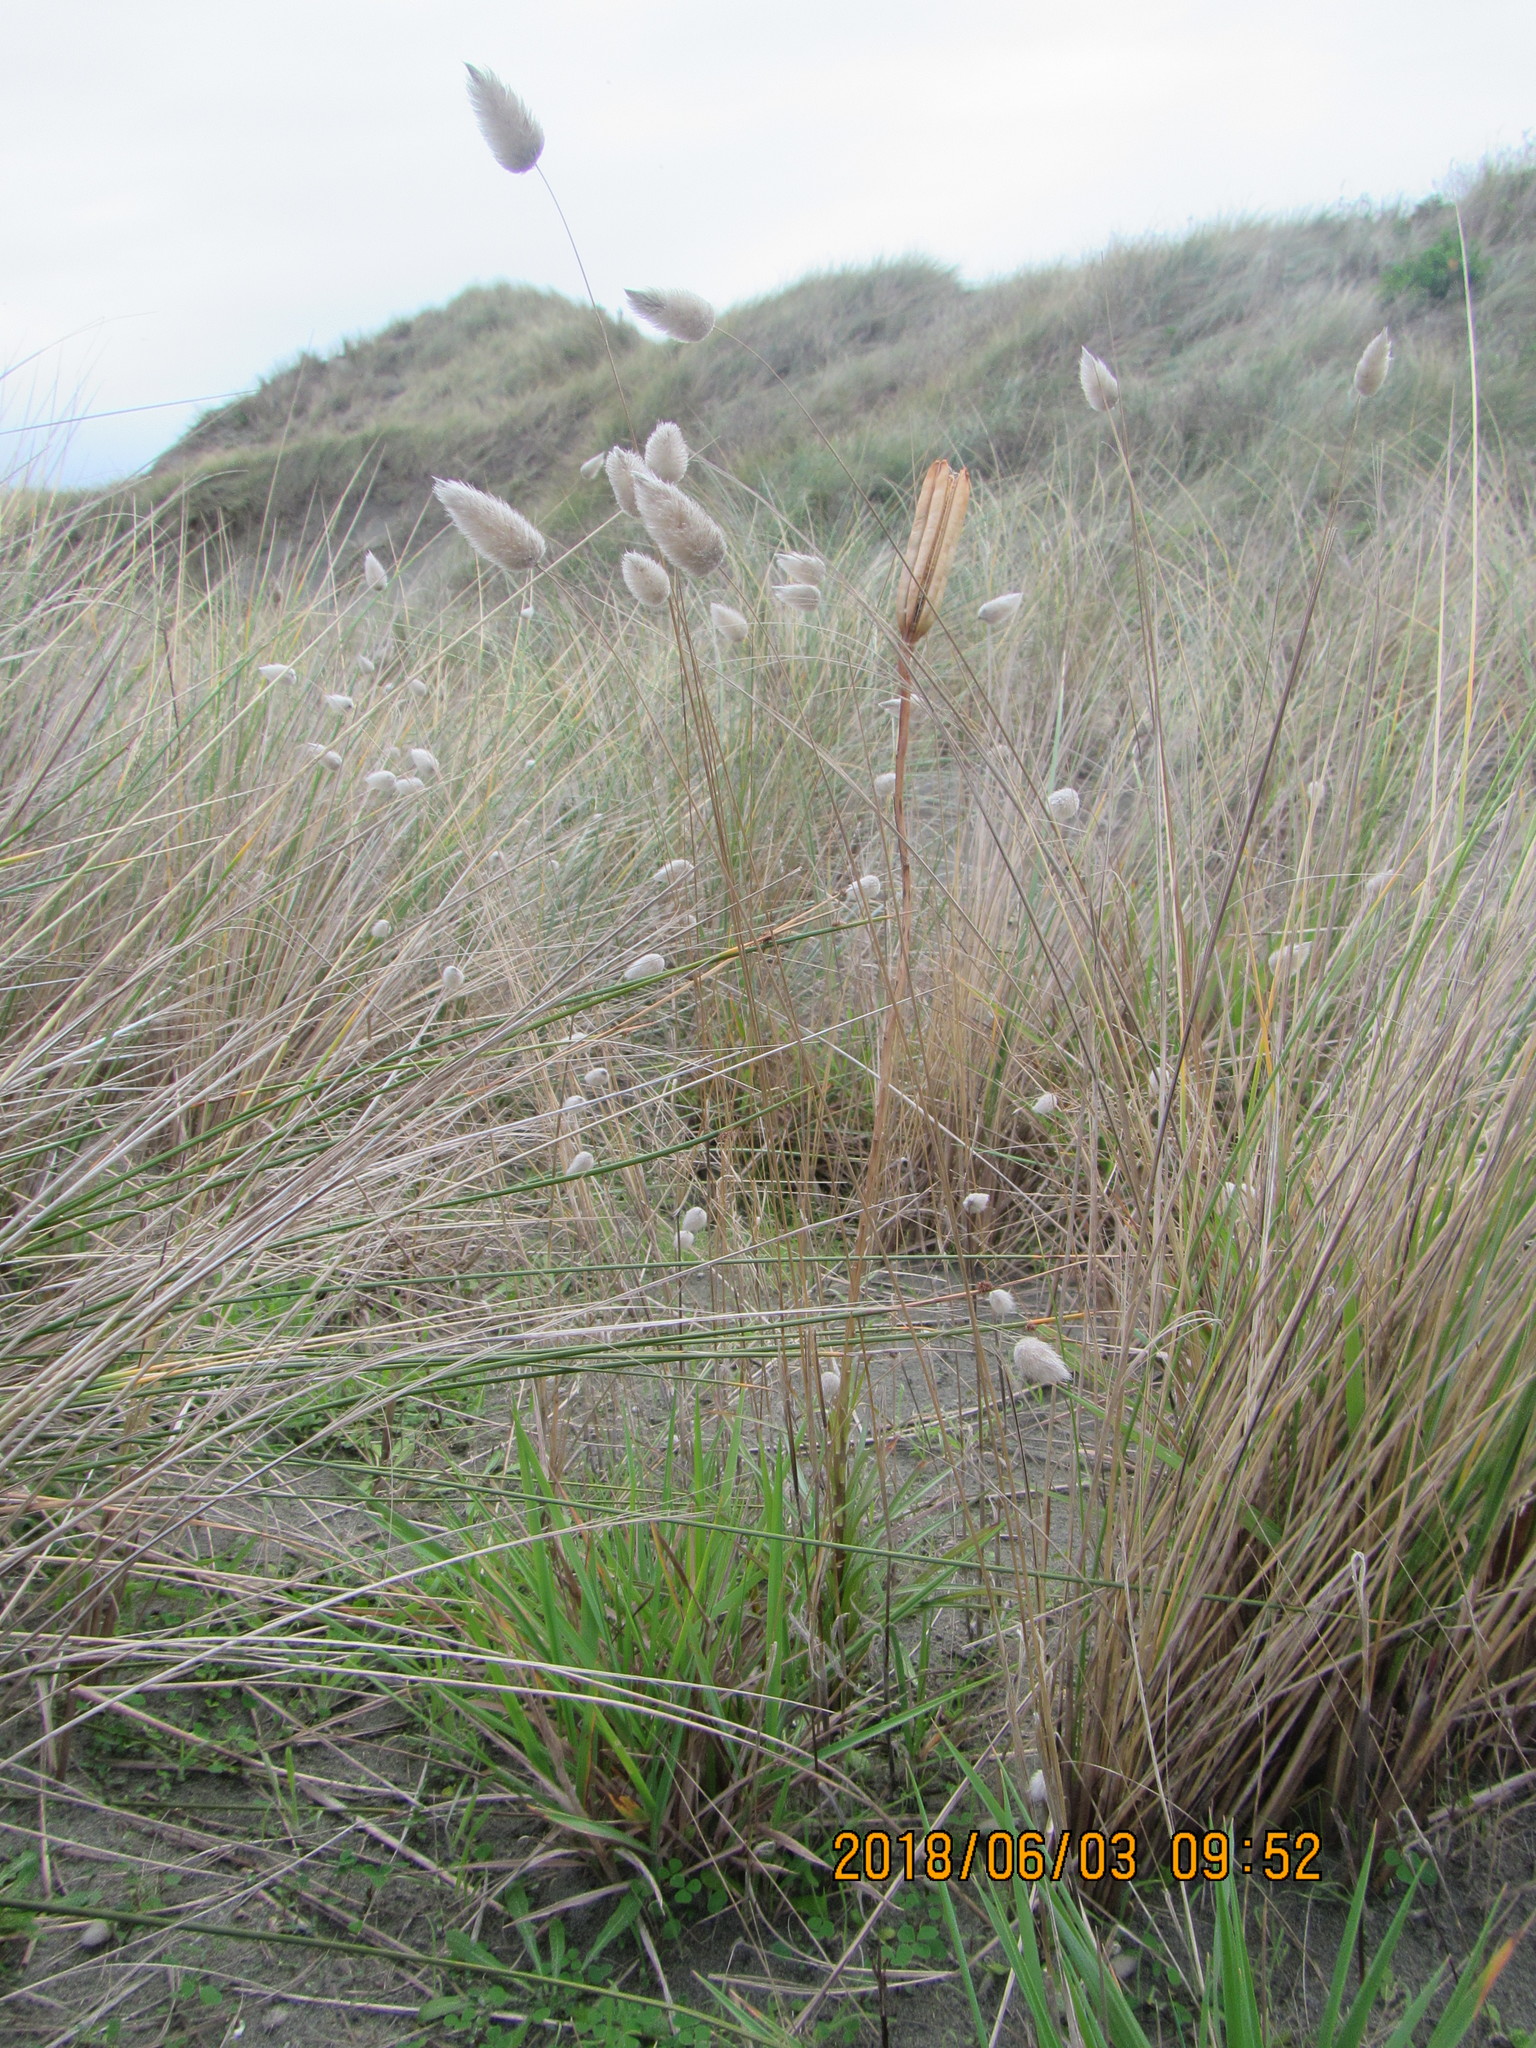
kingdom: Plantae
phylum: Tracheophyta
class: Liliopsida
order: Poales
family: Poaceae
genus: Lagurus
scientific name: Lagurus ovatus
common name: Hare's-tail
